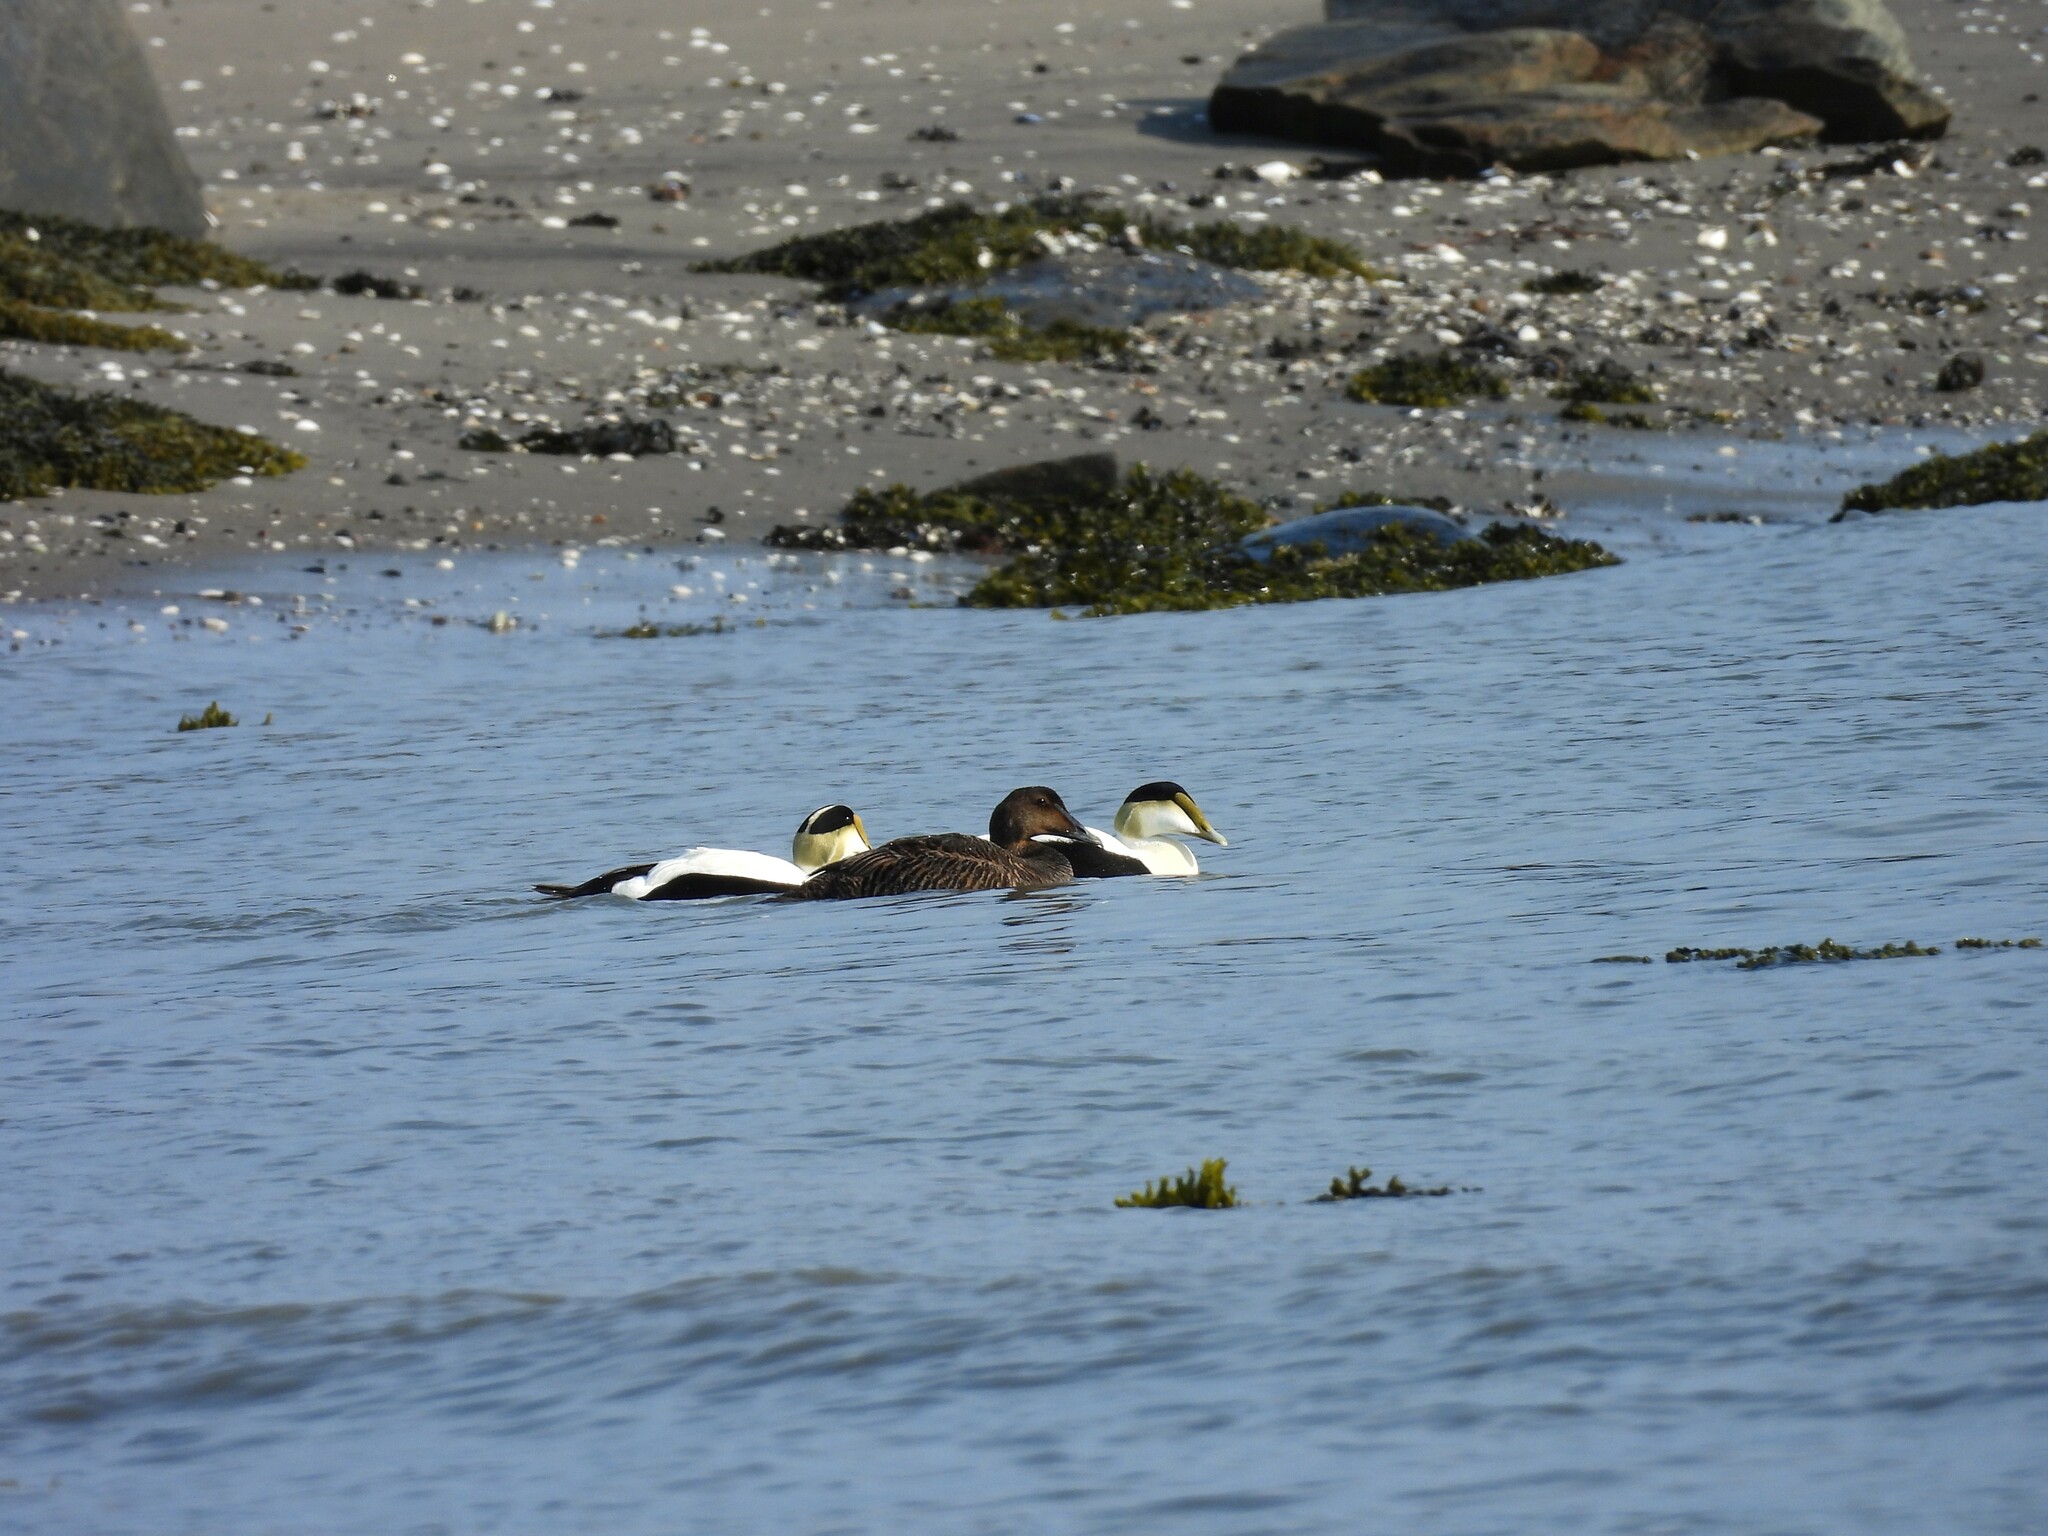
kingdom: Animalia
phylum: Chordata
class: Aves
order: Anseriformes
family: Anatidae
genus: Somateria
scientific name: Somateria mollissima
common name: Common eider
